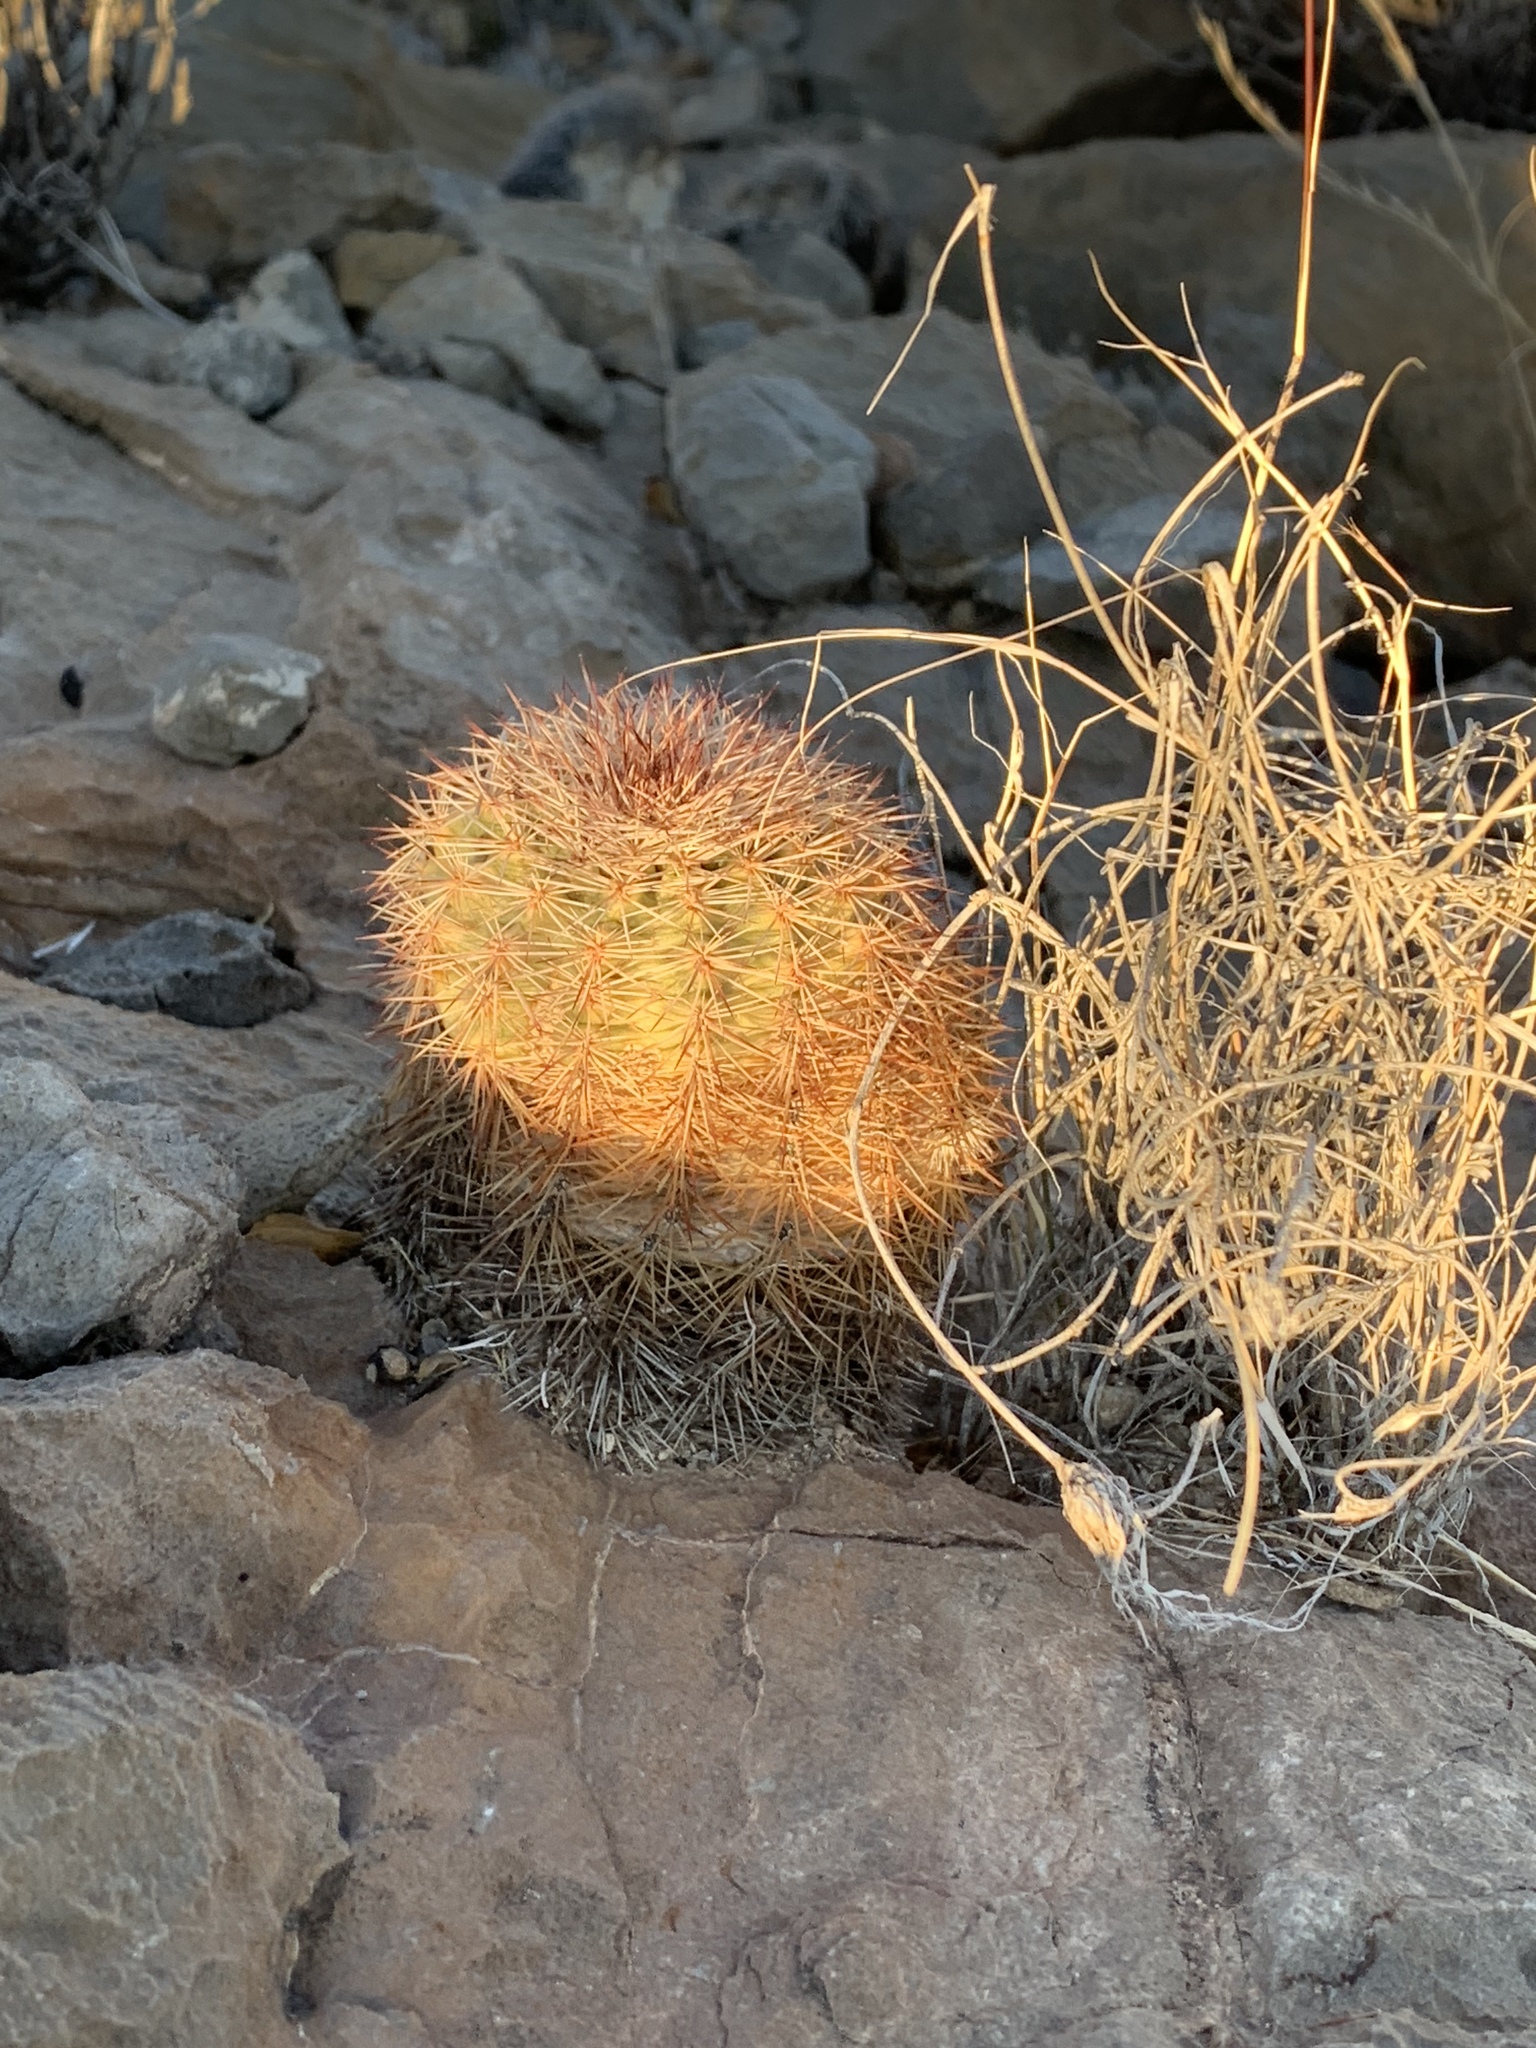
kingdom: Plantae
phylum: Tracheophyta
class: Magnoliopsida
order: Caryophyllales
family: Cactaceae
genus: Echinocereus
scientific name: Echinocereus dasyacanthus
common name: Spiny hedgehog cactus
